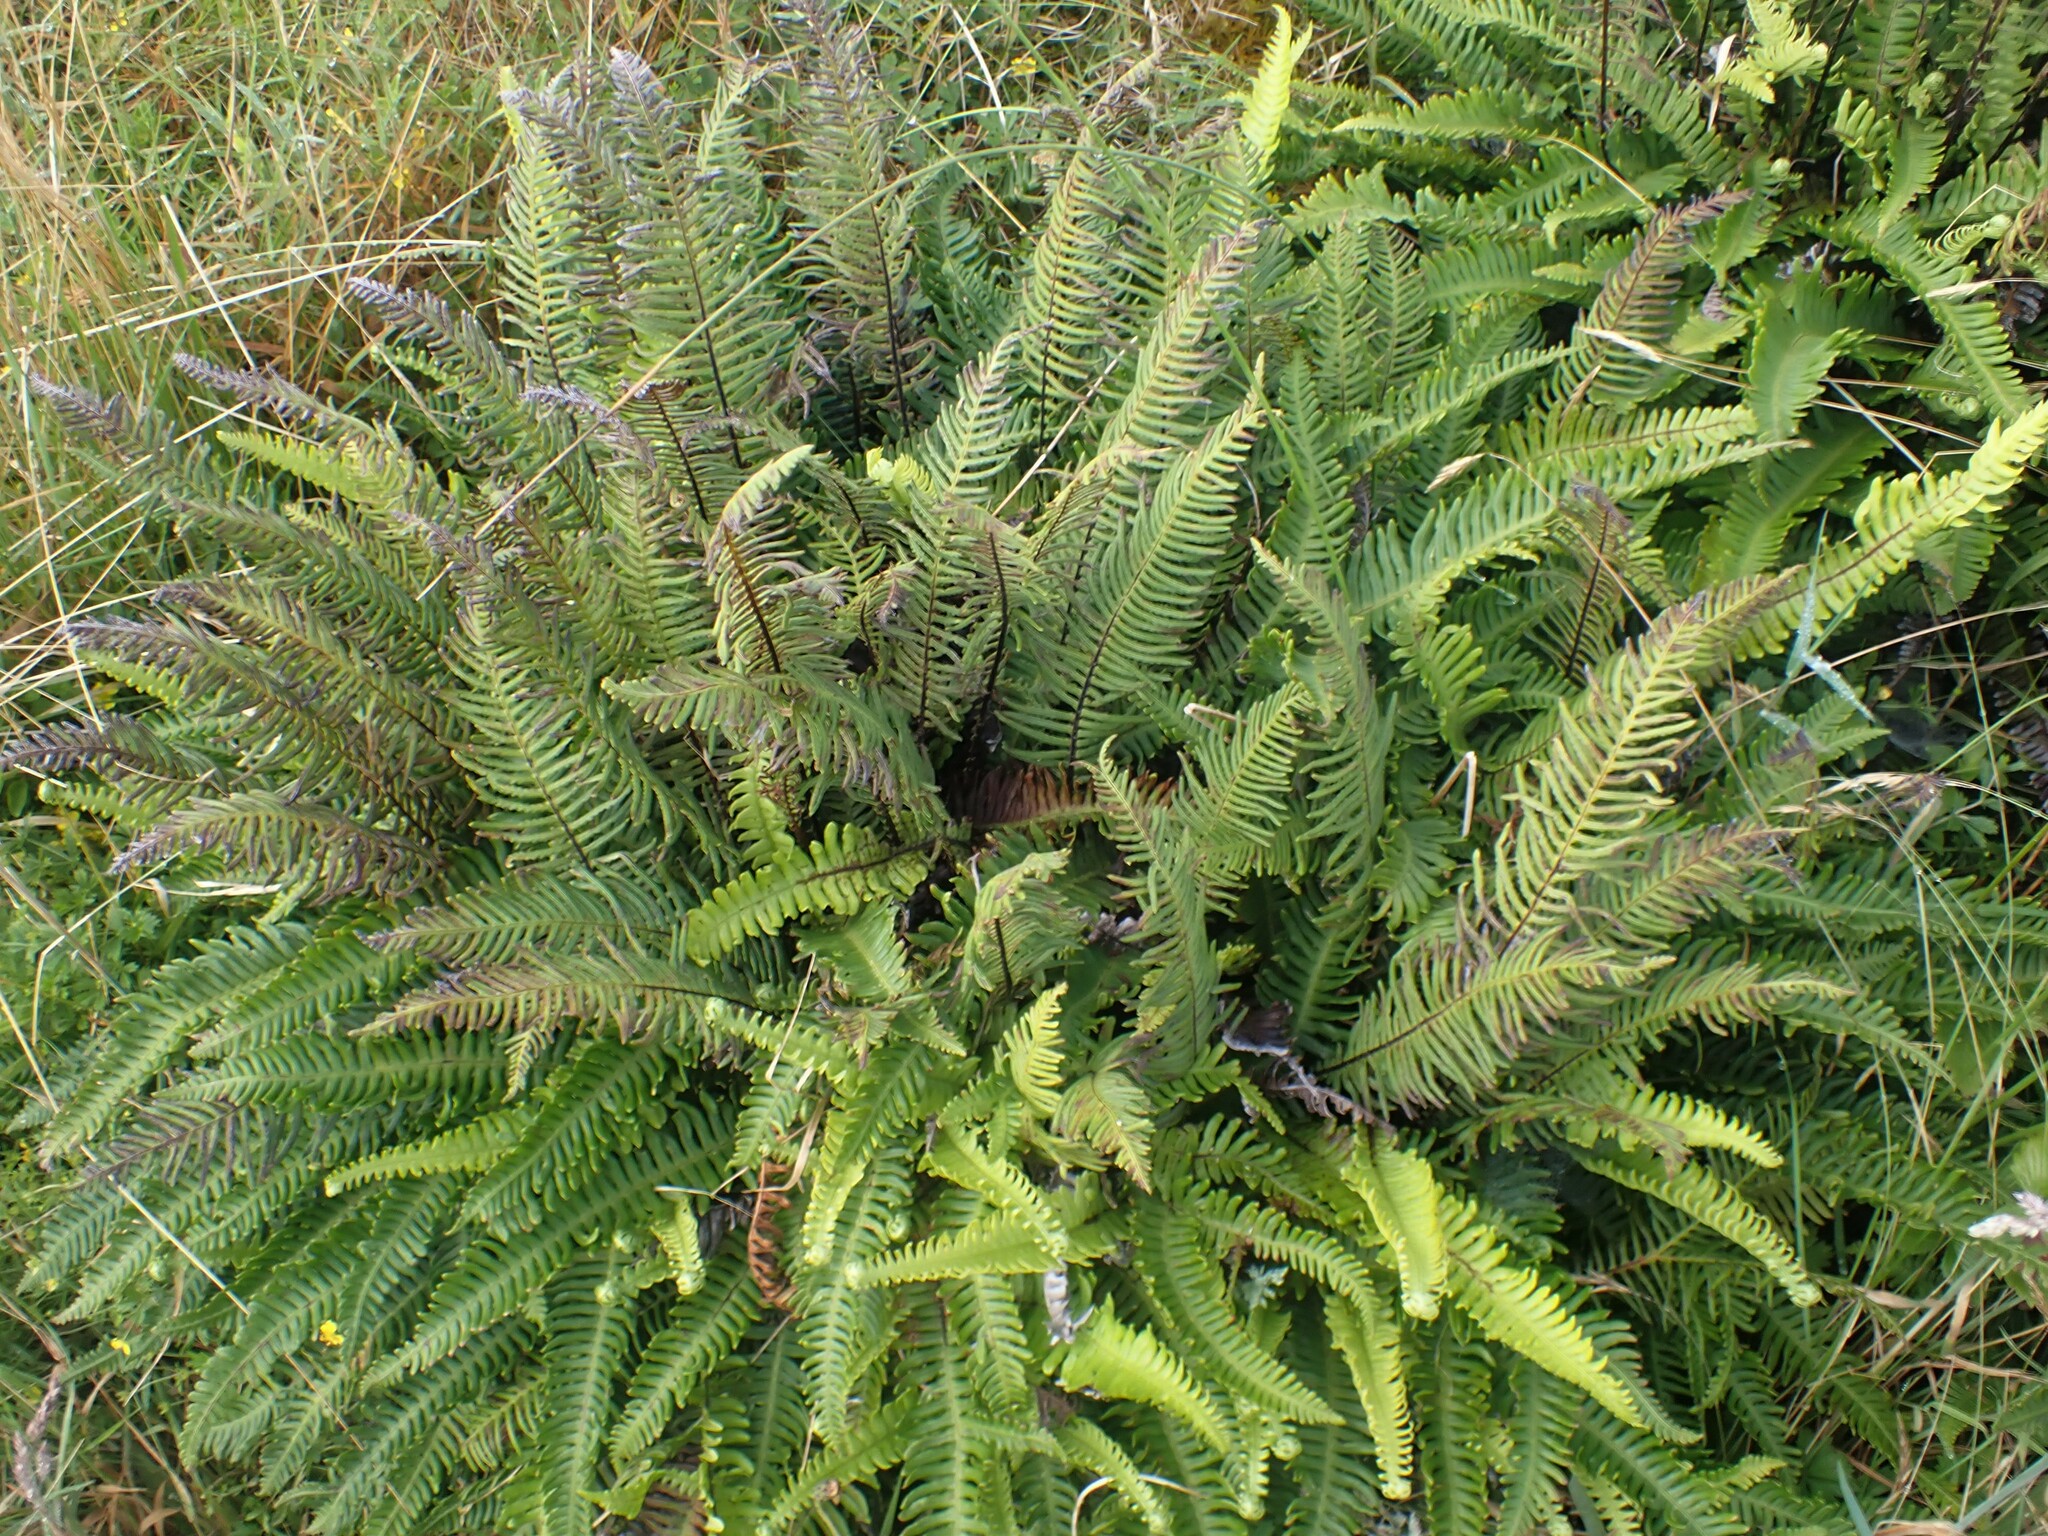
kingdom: Plantae
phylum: Tracheophyta
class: Polypodiopsida
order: Polypodiales
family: Blechnaceae
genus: Struthiopteris
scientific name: Struthiopteris spicant
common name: Deer fern
